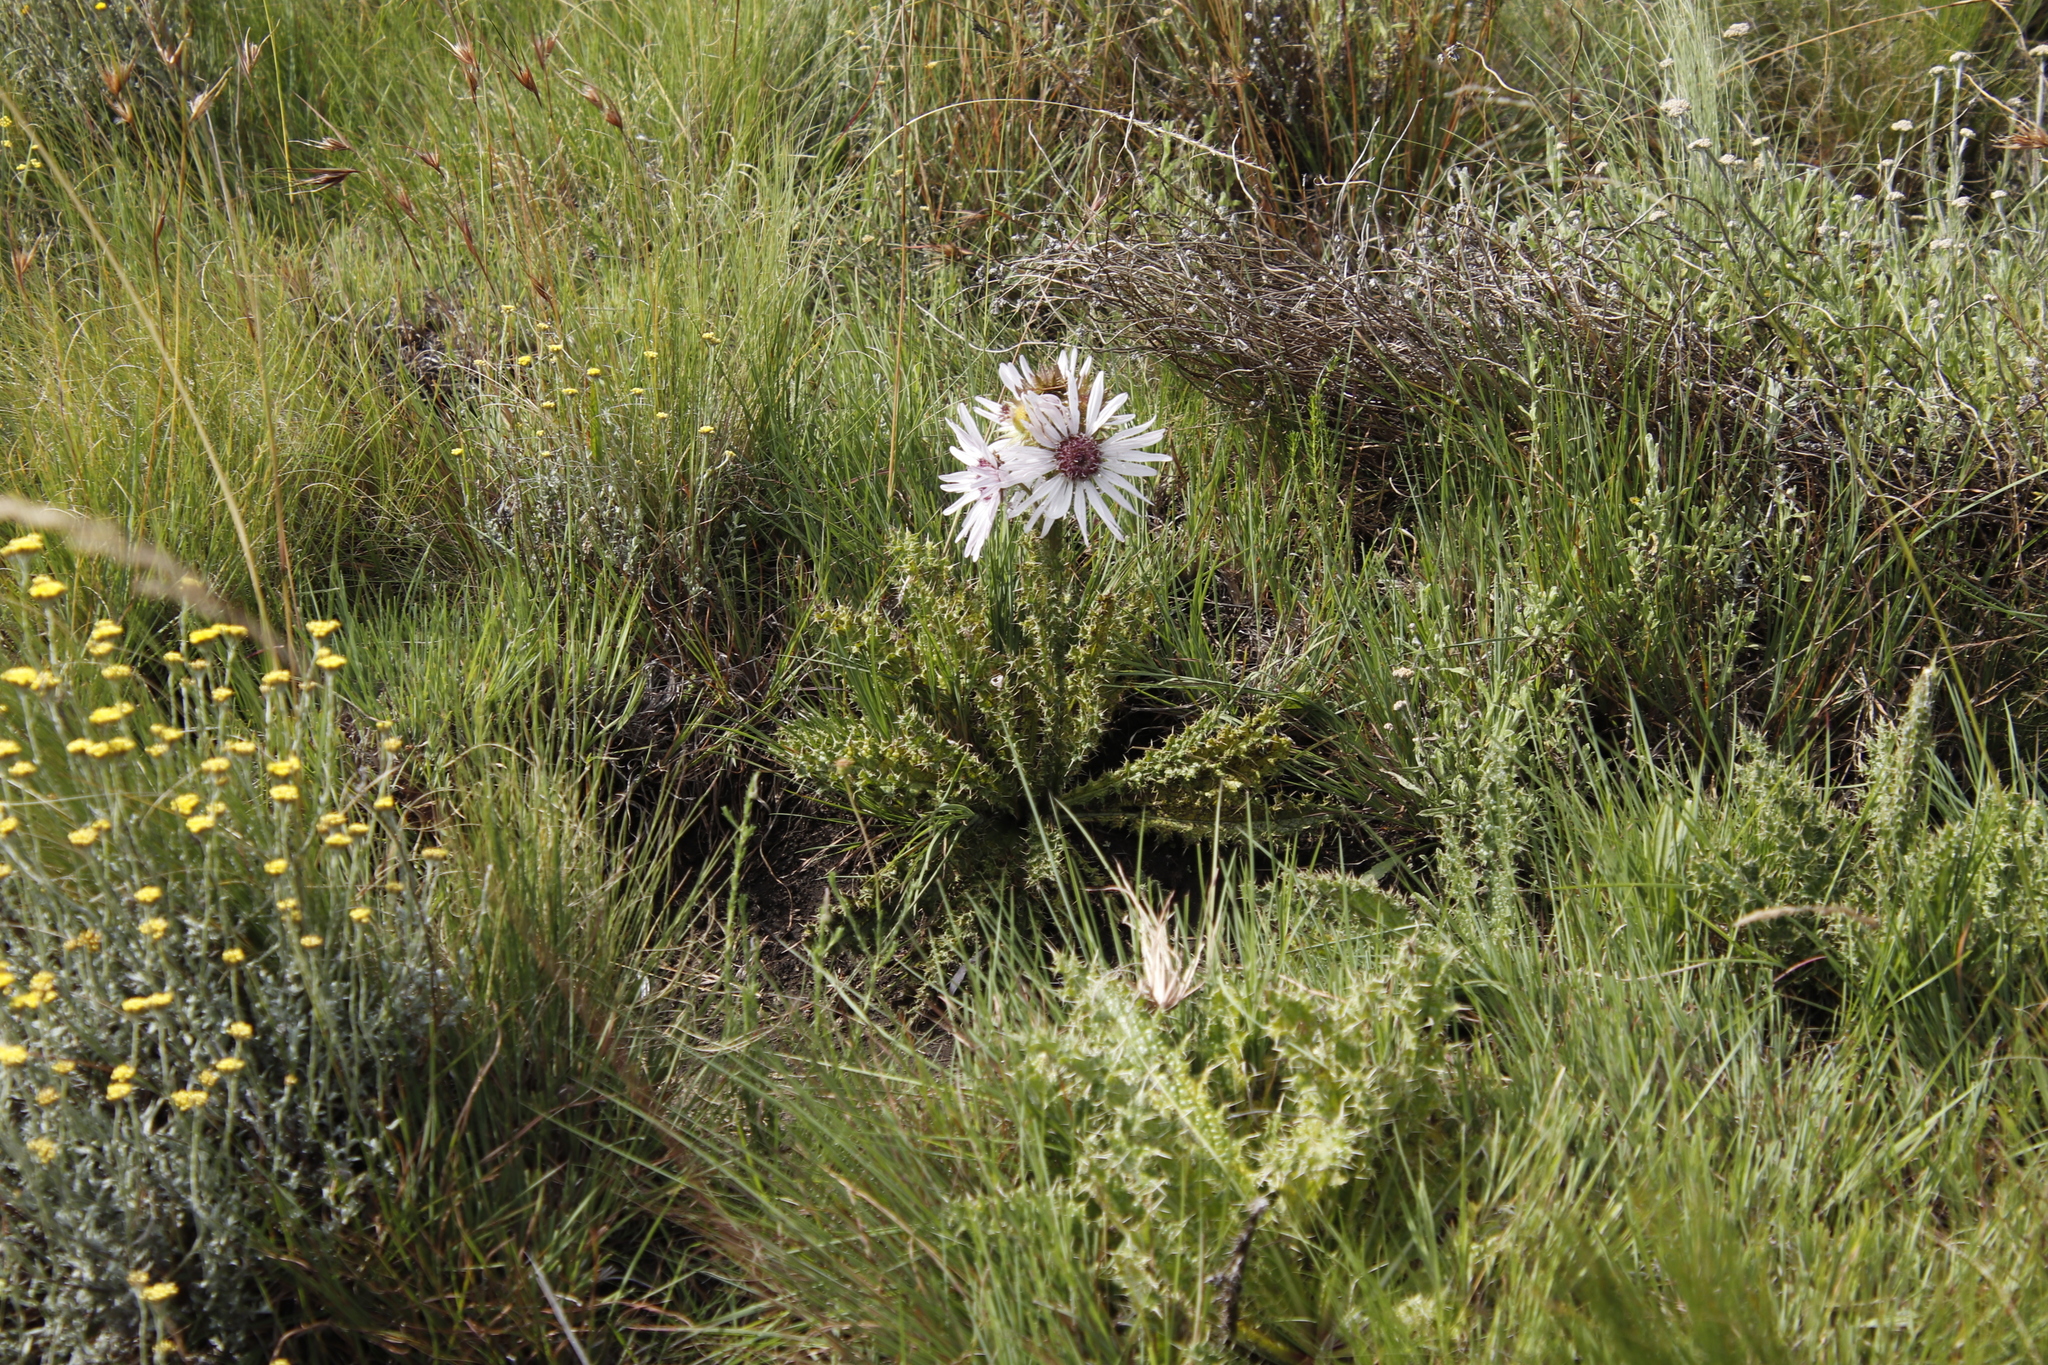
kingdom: Plantae
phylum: Tracheophyta
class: Magnoliopsida
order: Asterales
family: Asteraceae
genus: Berkheya
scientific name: Berkheya purpurea
